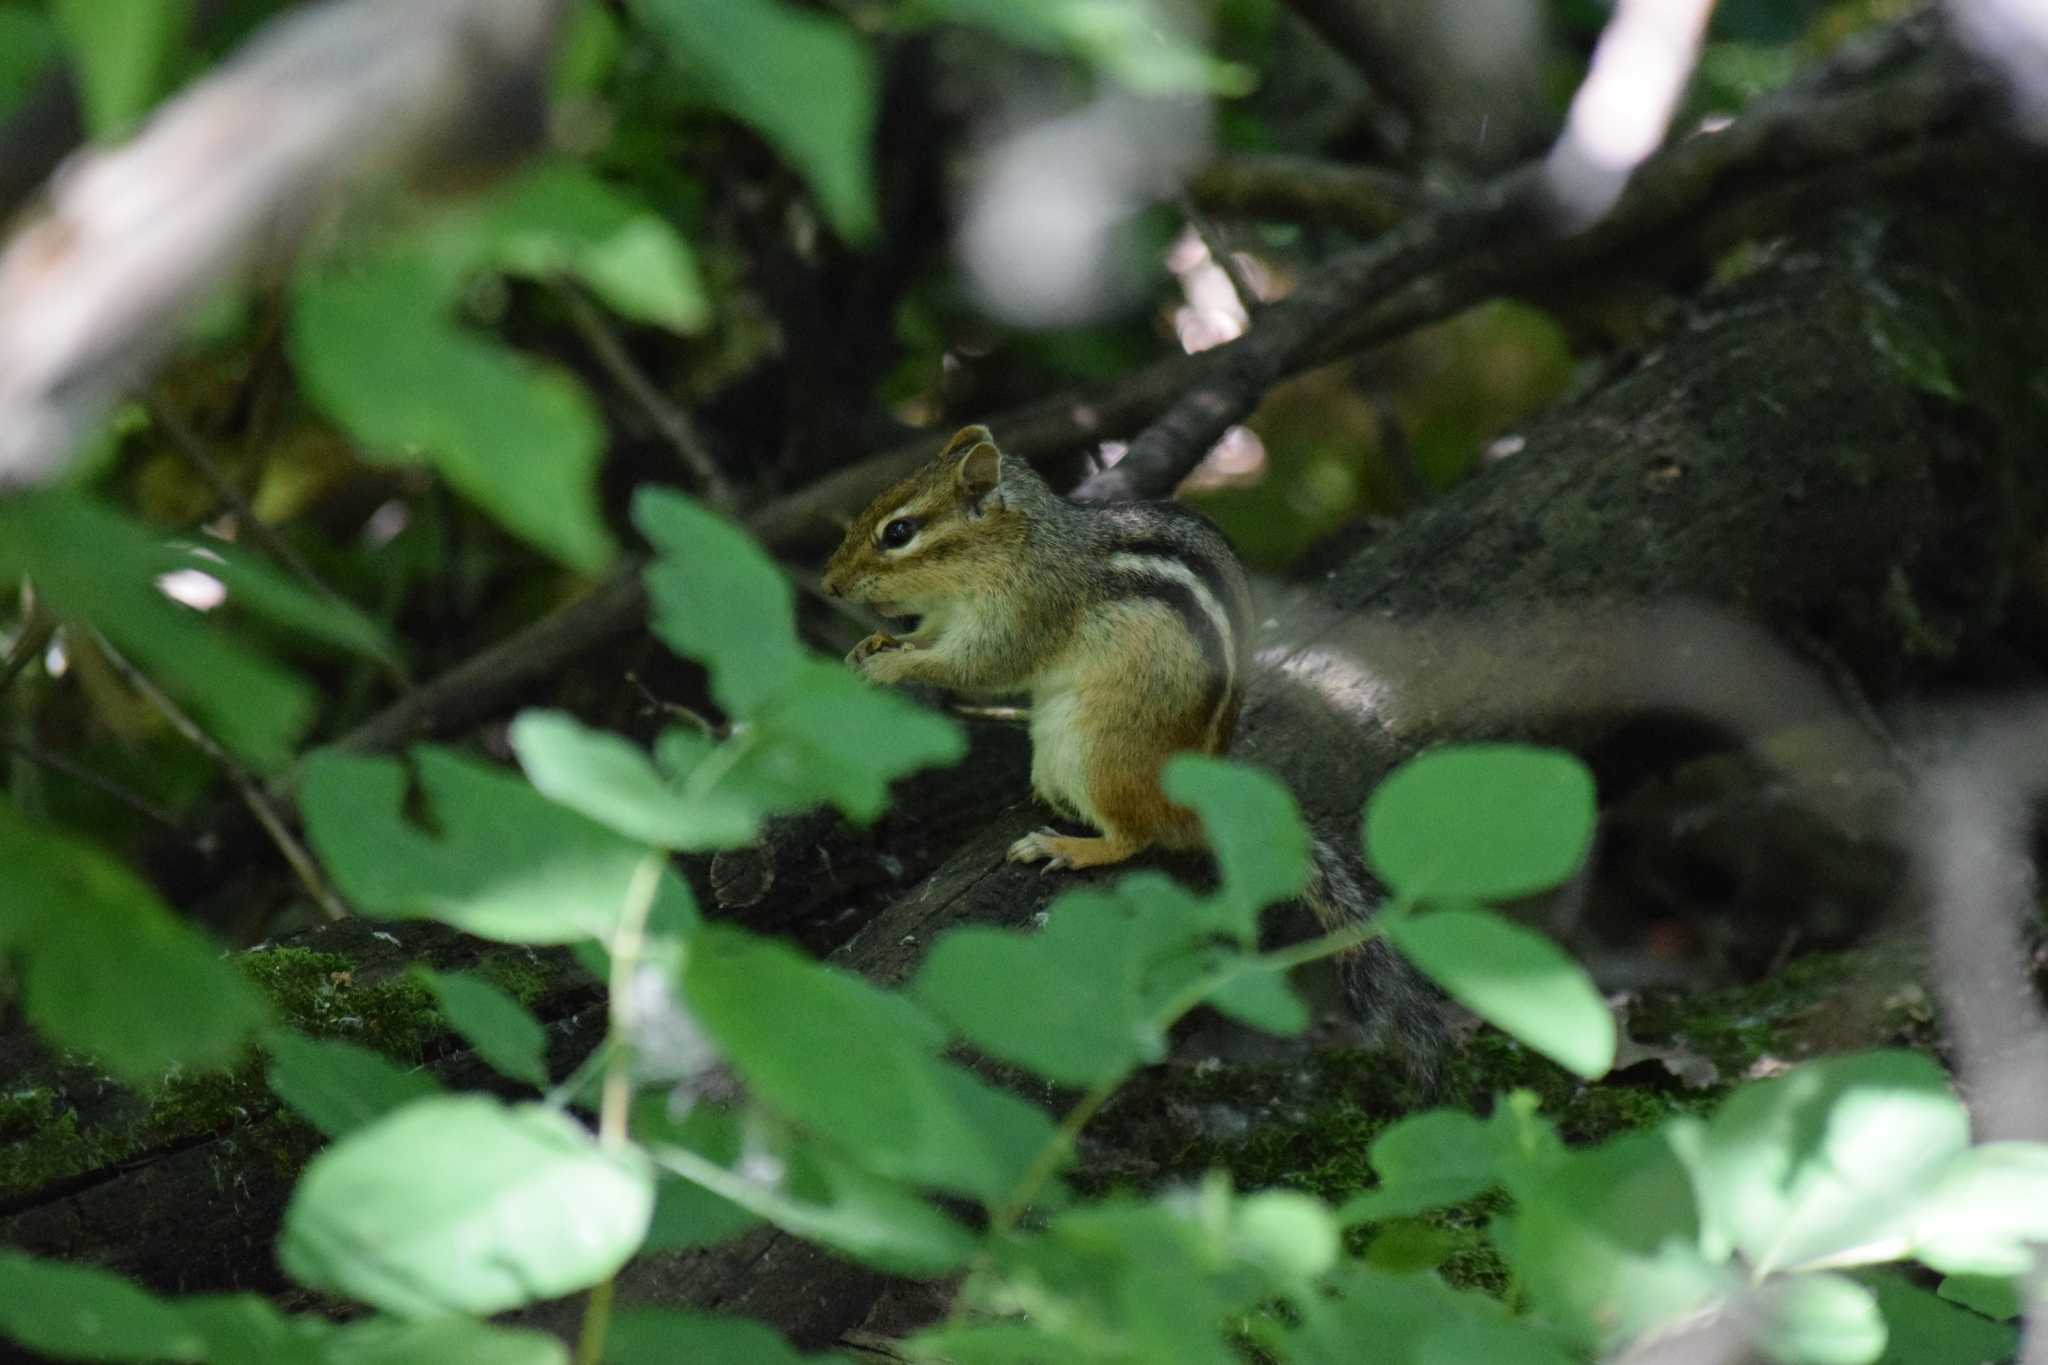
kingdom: Animalia
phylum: Chordata
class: Mammalia
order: Rodentia
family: Sciuridae
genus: Tamias
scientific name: Tamias striatus
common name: Eastern chipmunk
